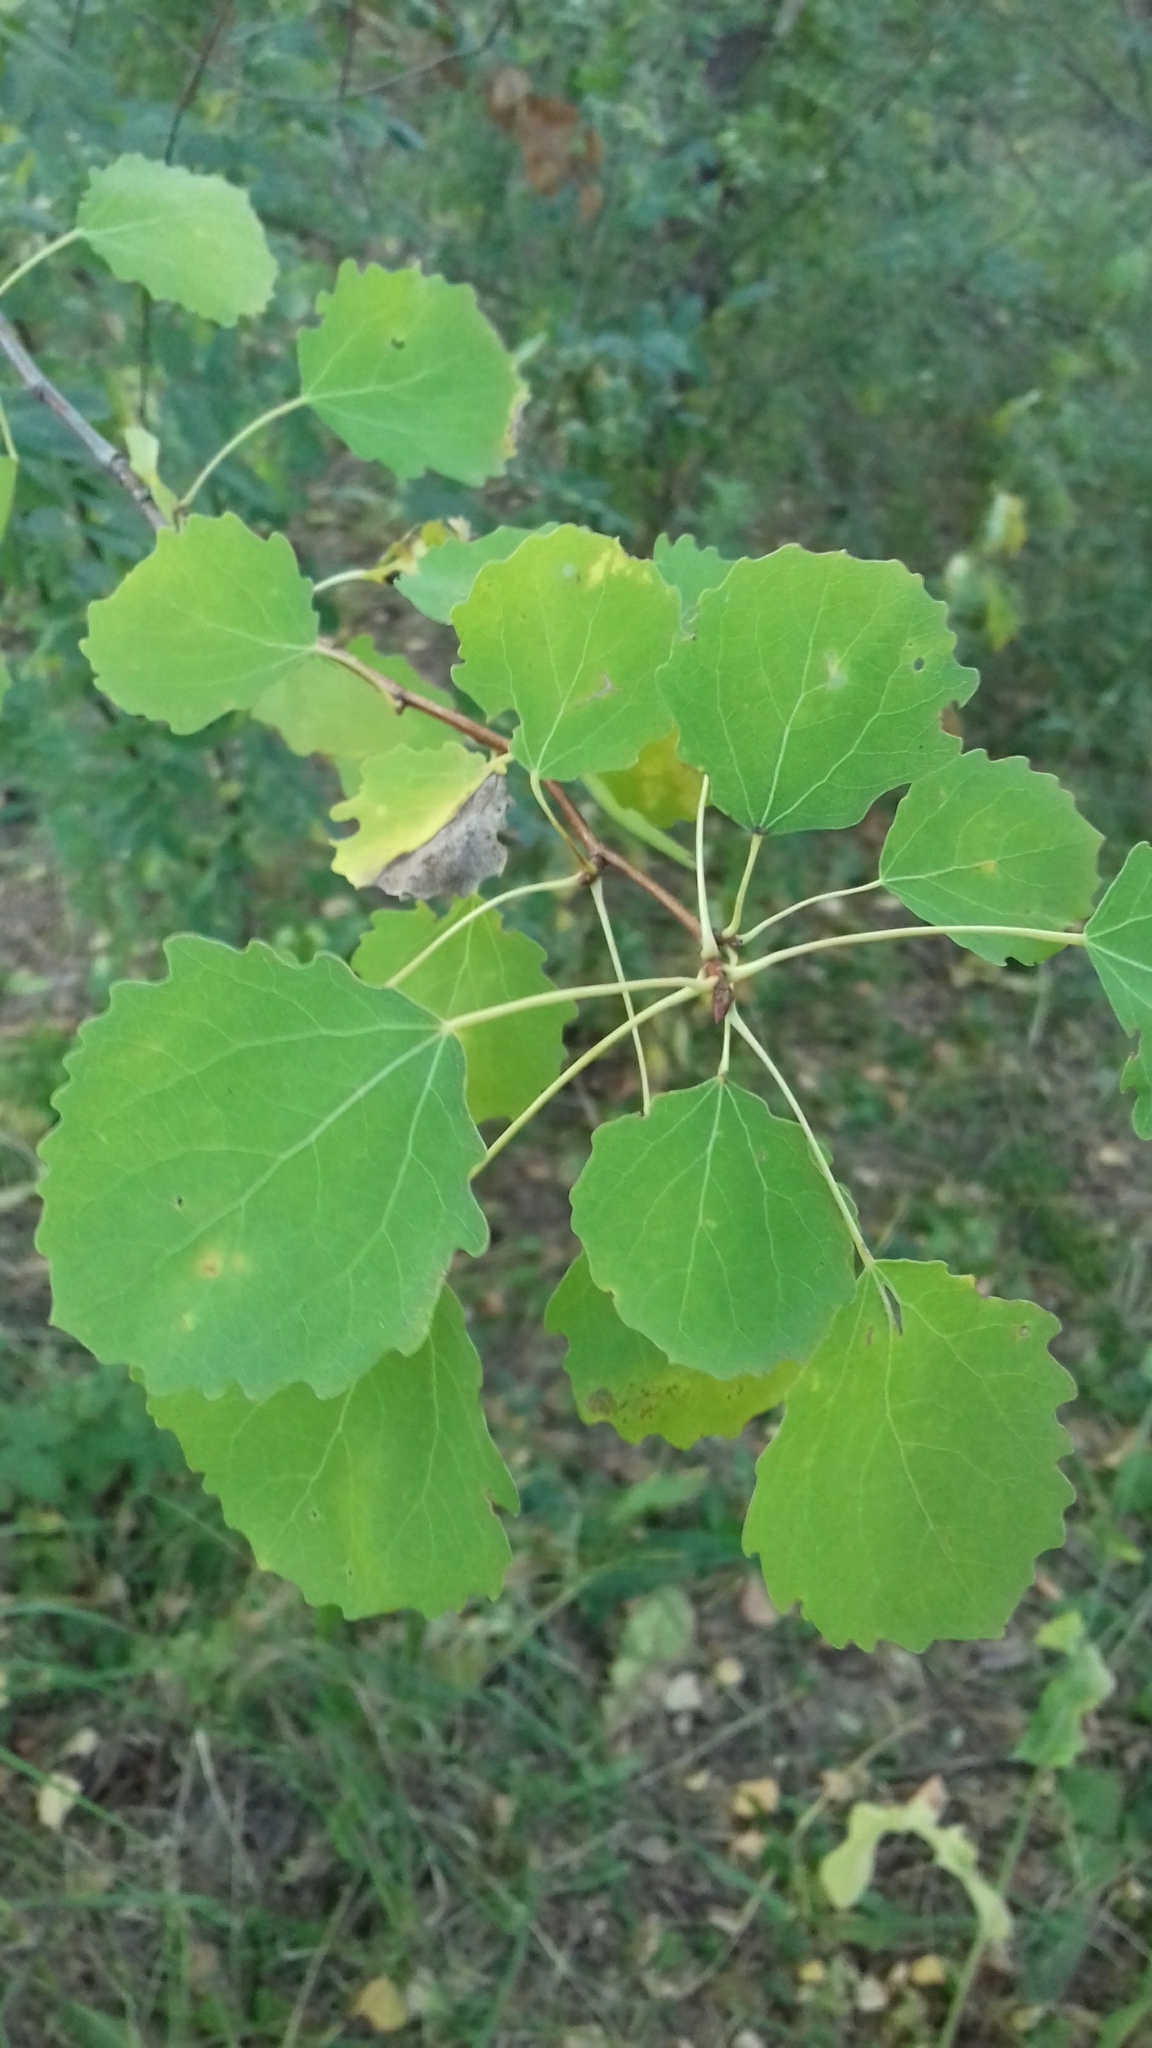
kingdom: Plantae
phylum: Tracheophyta
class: Magnoliopsida
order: Malpighiales
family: Salicaceae
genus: Populus
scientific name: Populus tremula
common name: European aspen
